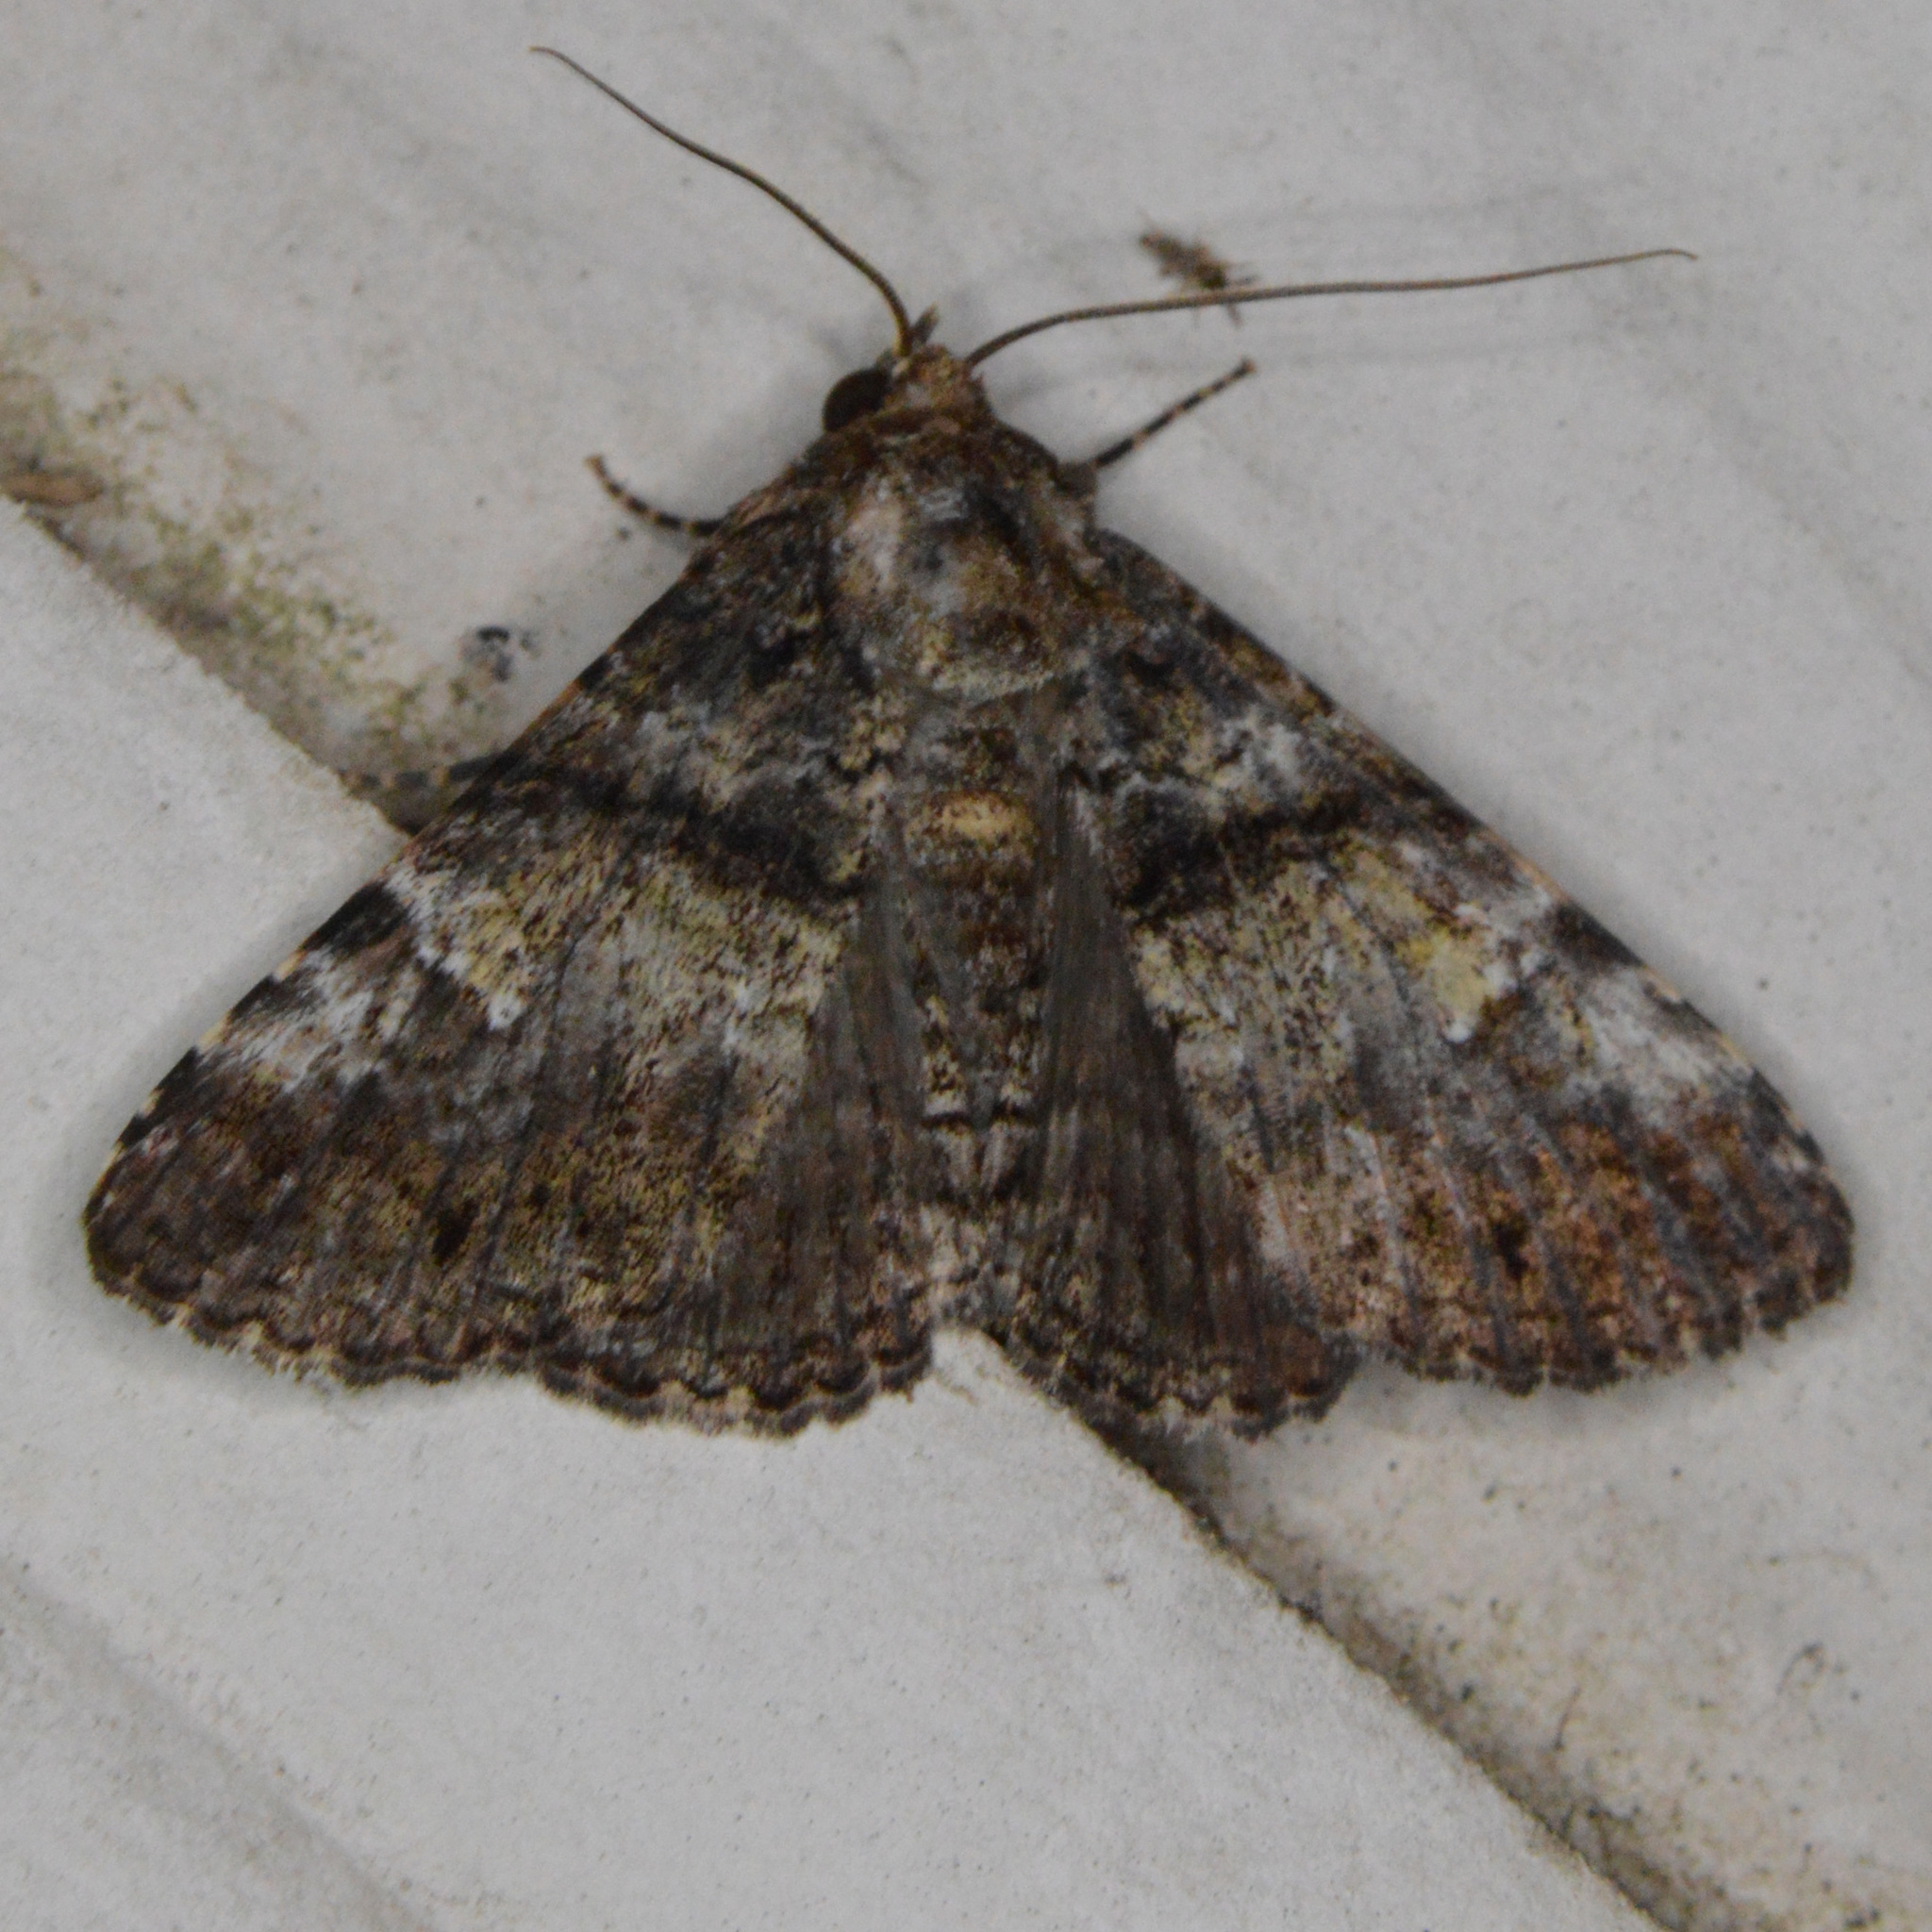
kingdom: Animalia
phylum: Arthropoda
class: Insecta
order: Lepidoptera
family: Erebidae
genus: Metria
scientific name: Metria amella
